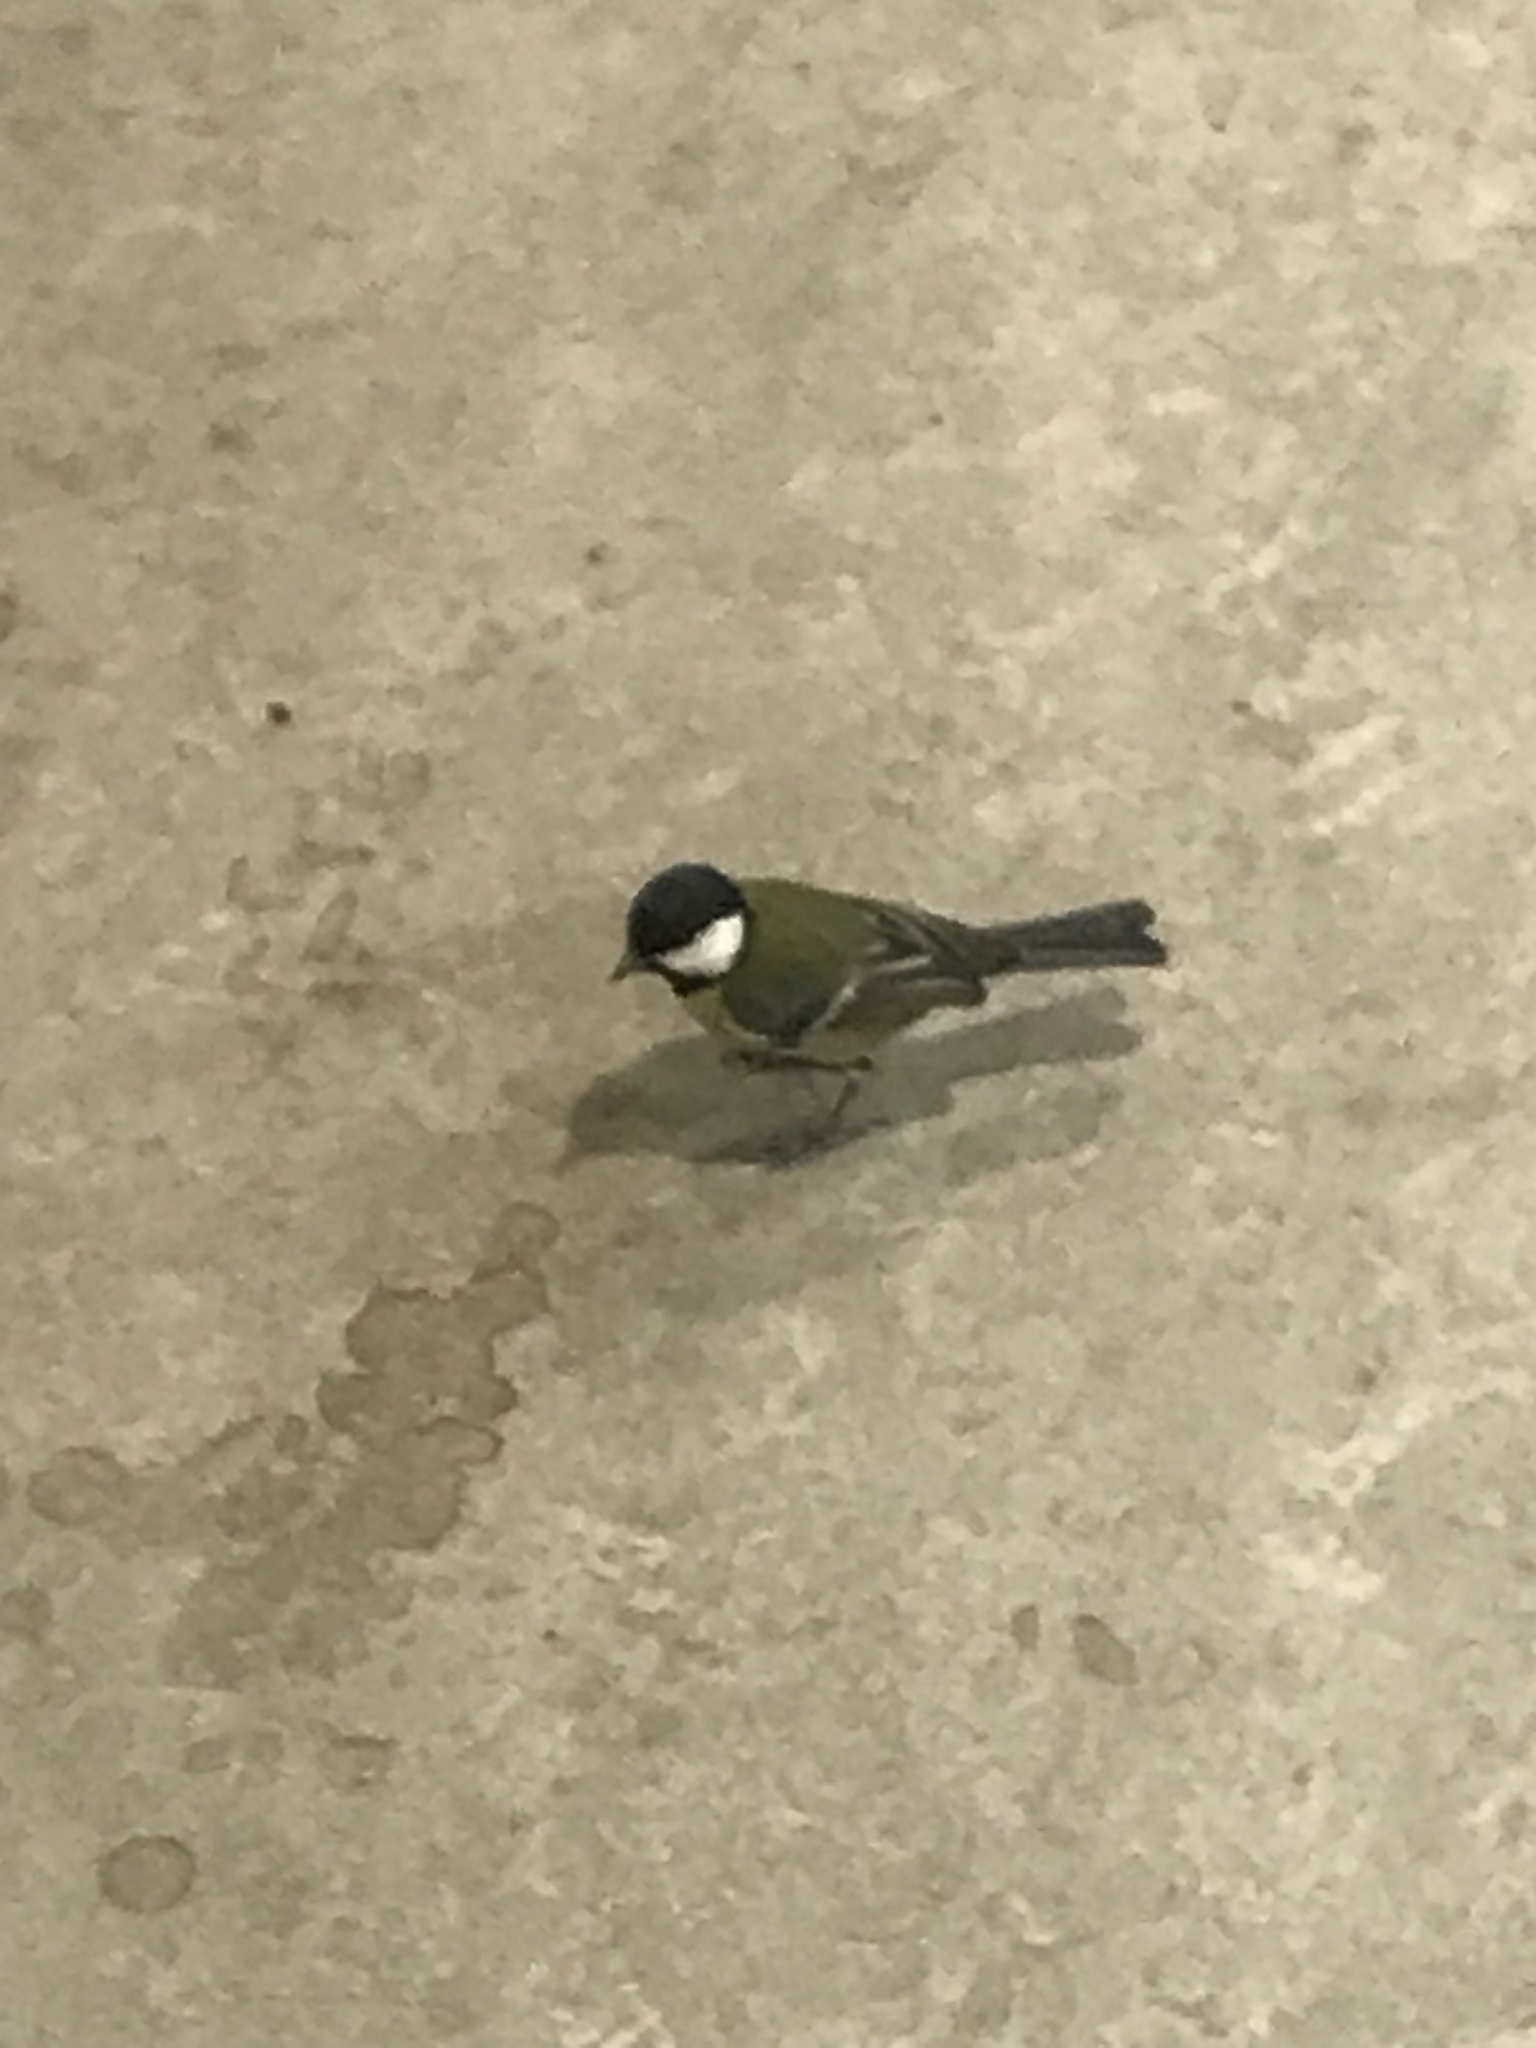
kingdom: Animalia
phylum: Chordata
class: Aves
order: Passeriformes
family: Paridae
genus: Parus
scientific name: Parus major
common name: Great tit
